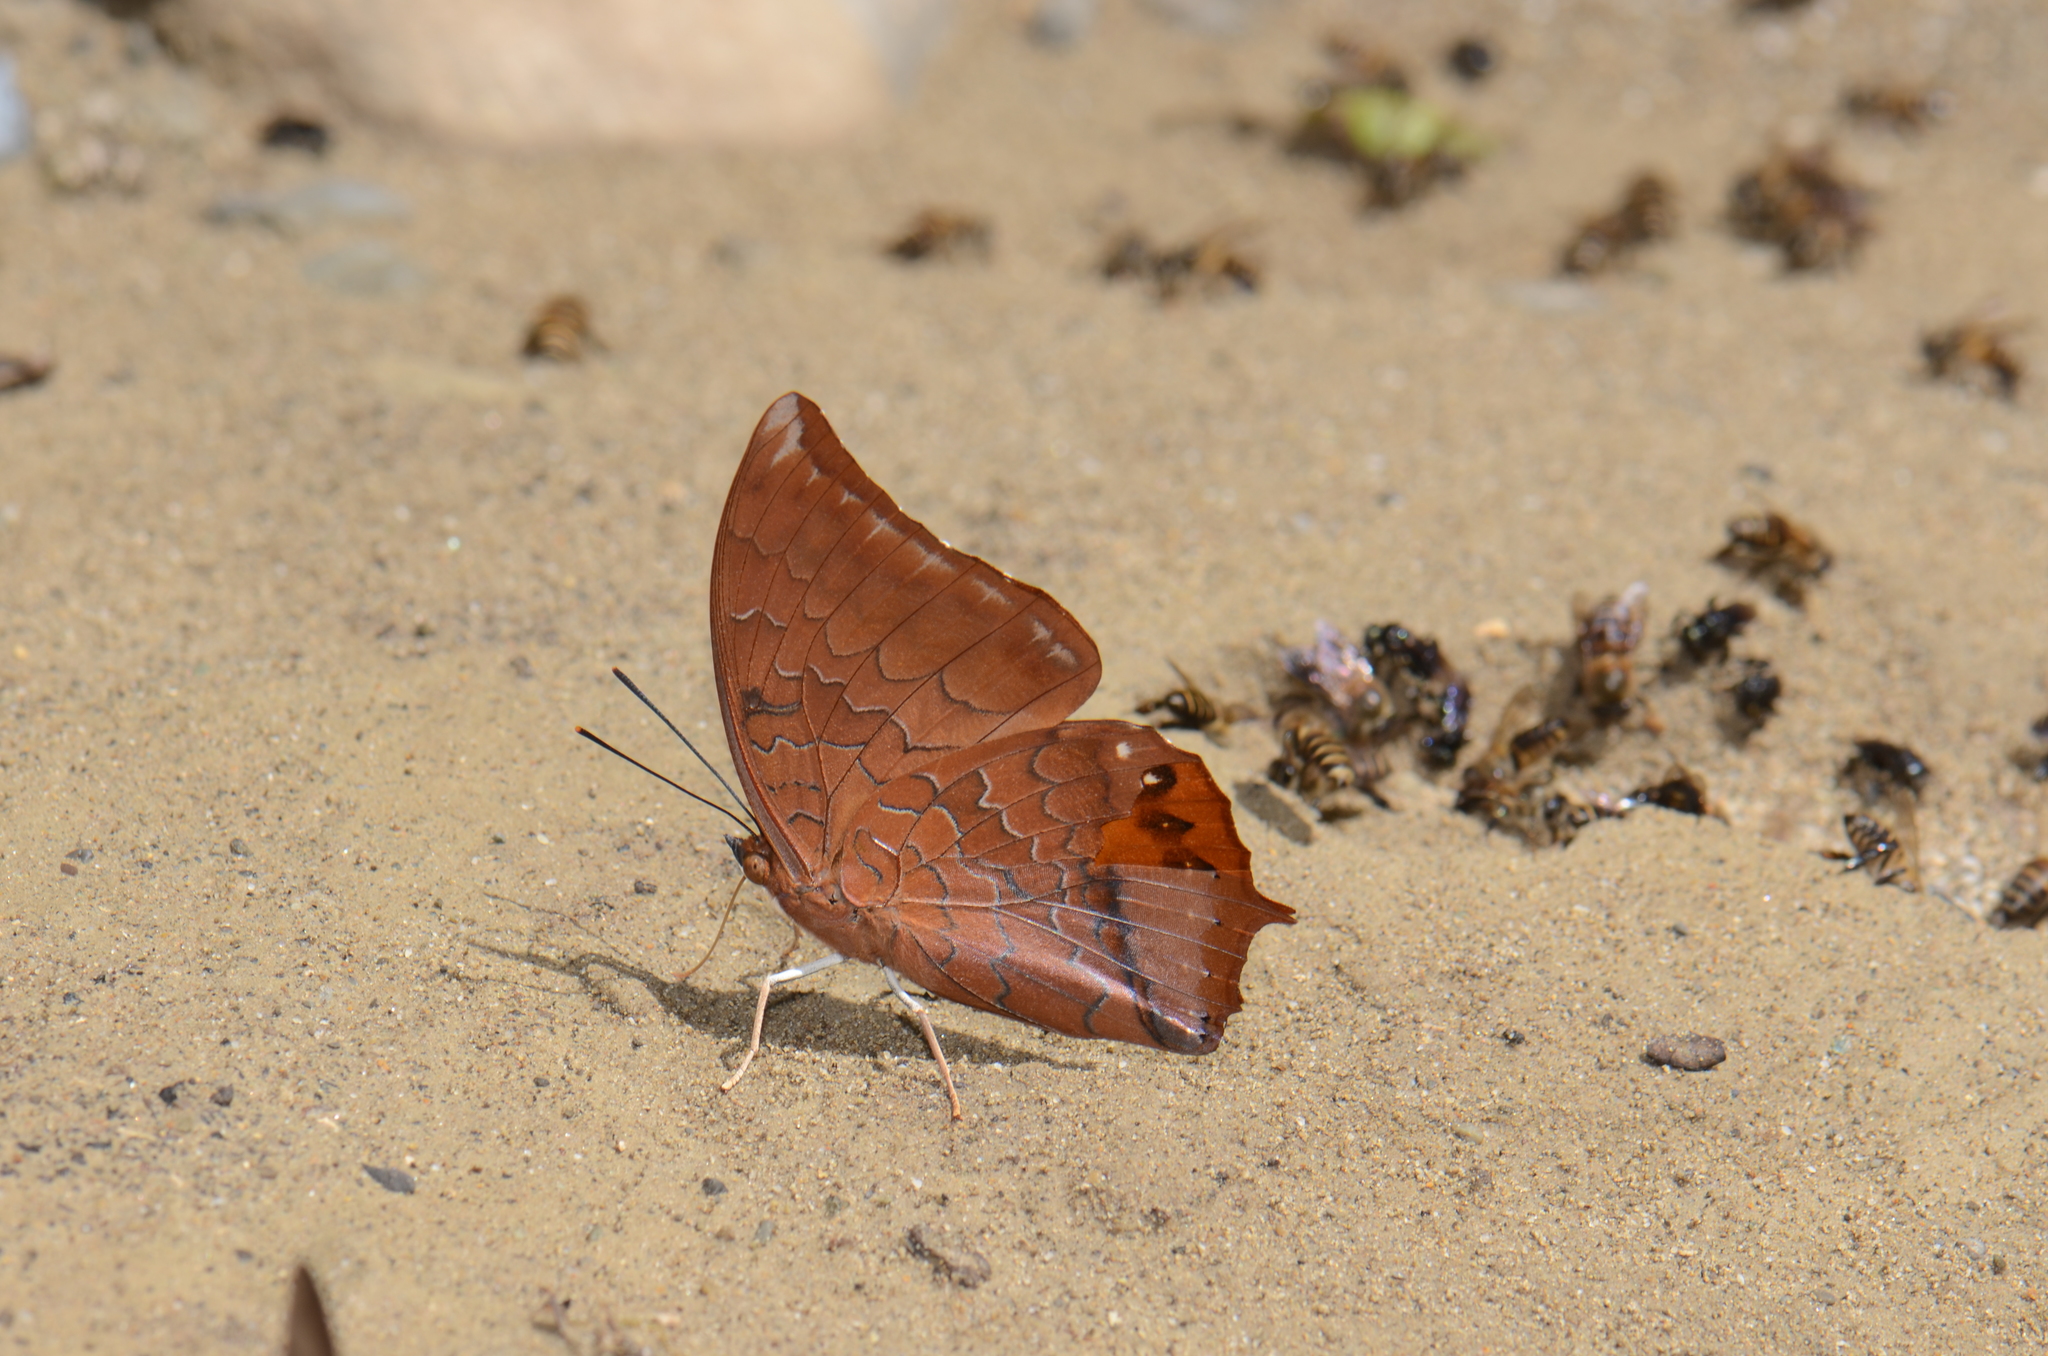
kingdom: Animalia
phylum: Arthropoda
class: Insecta
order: Lepidoptera
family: Nymphalidae
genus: Charaxes
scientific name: Charaxes harmodius
